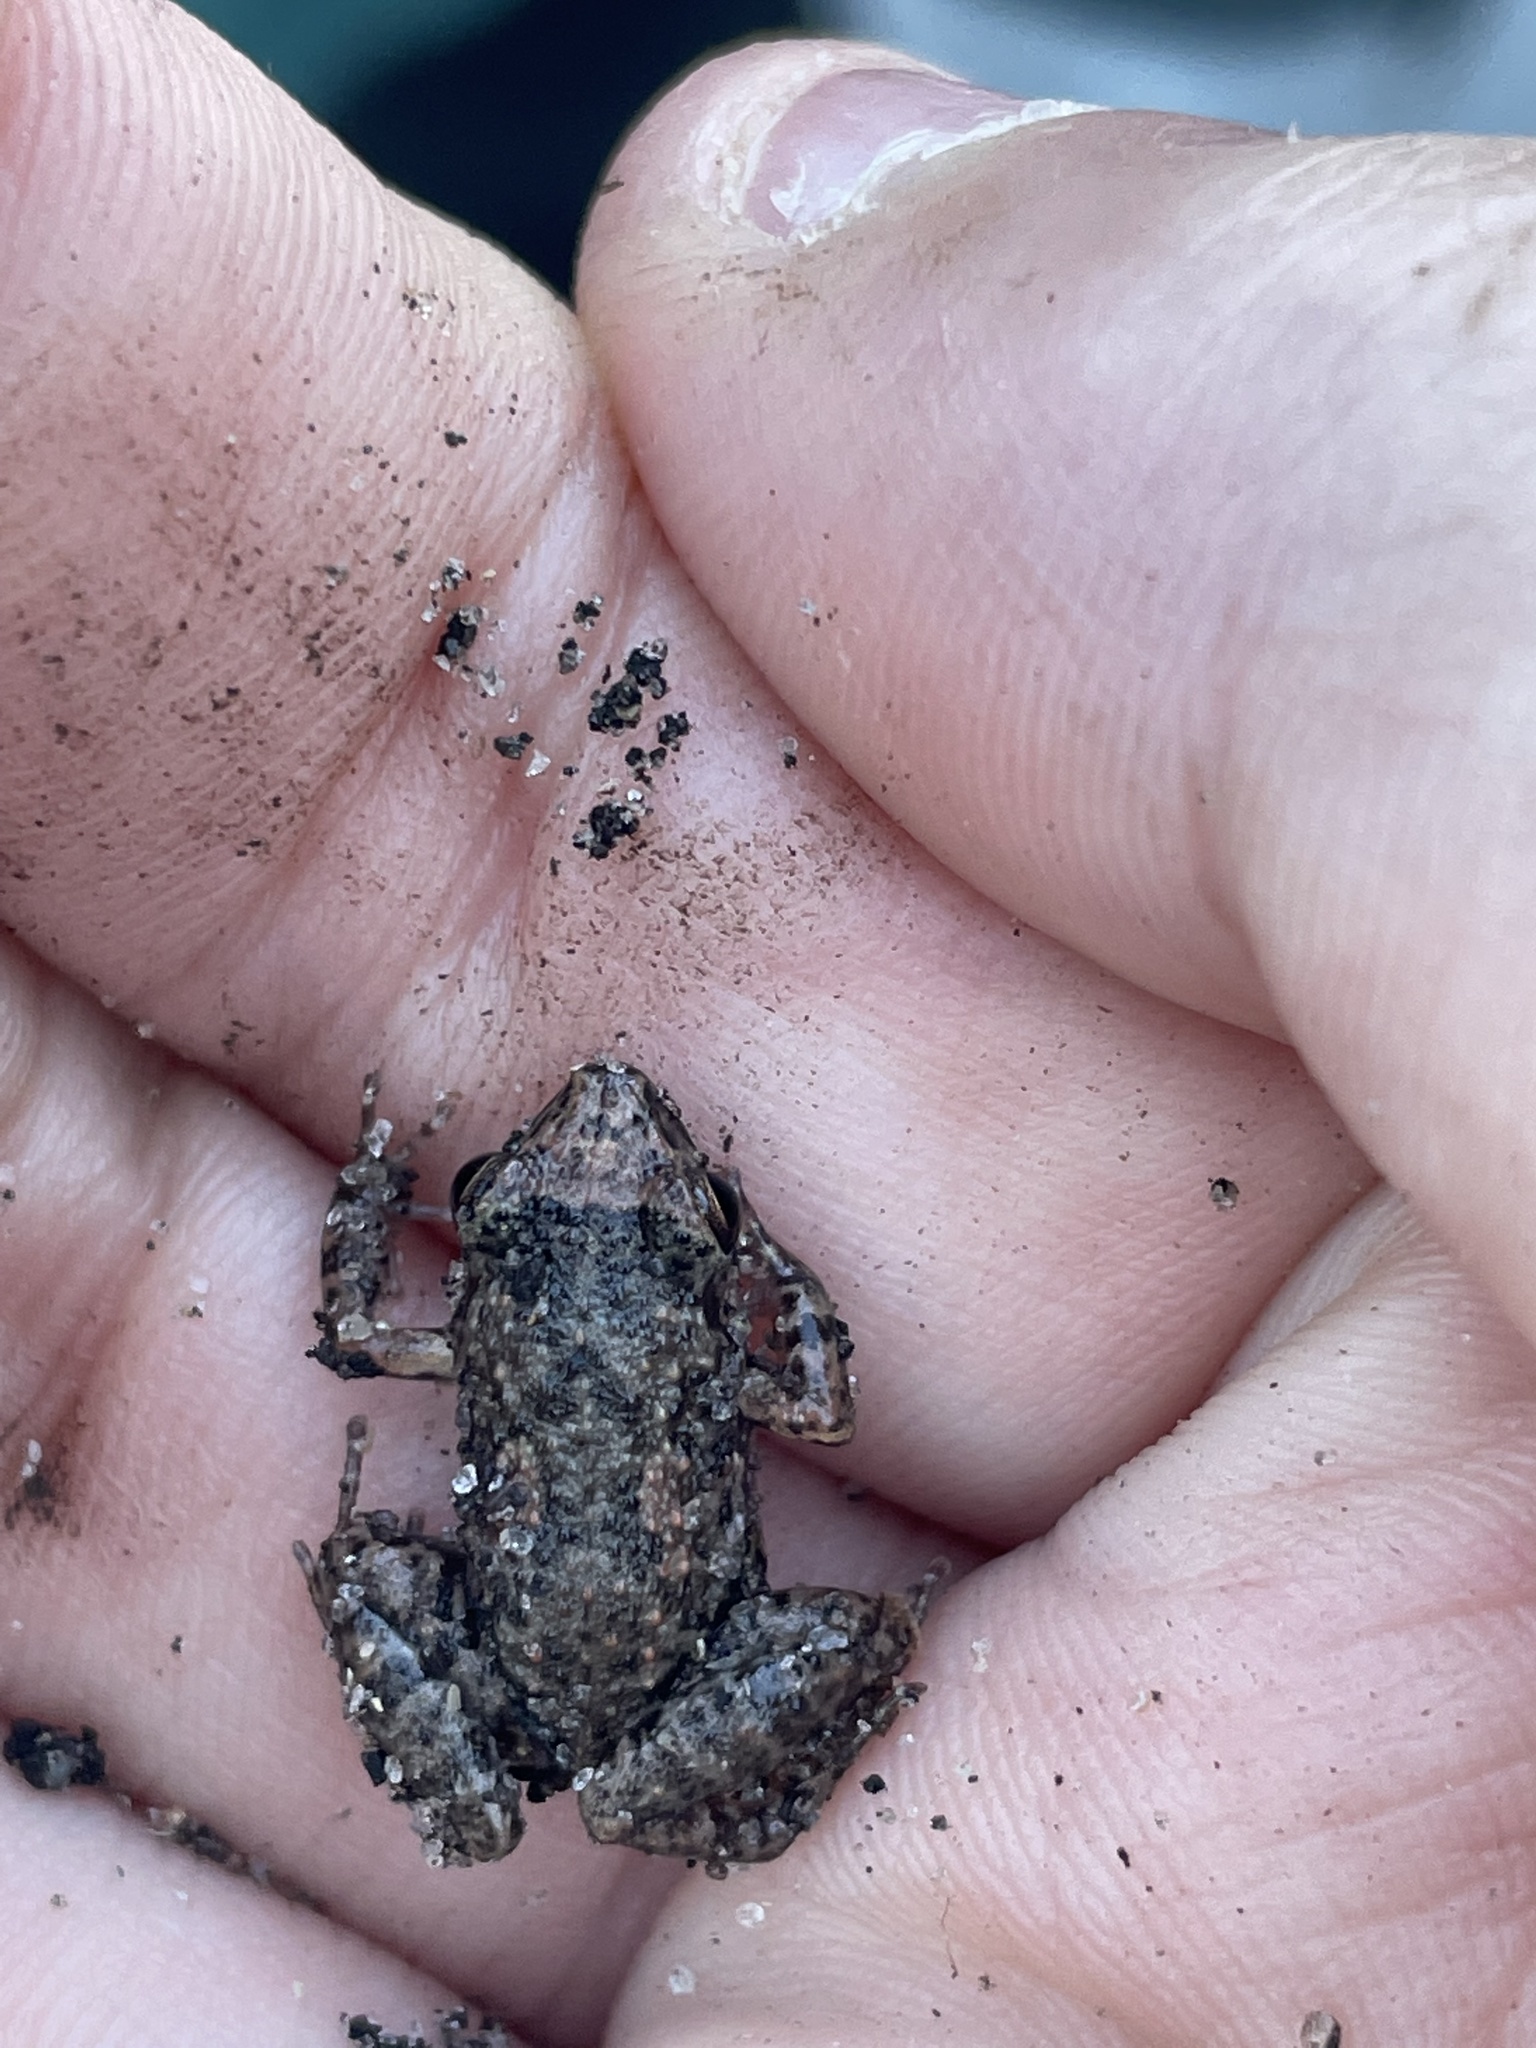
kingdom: Animalia
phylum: Chordata
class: Amphibia
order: Anura
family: Eleutherodactylidae
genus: Eleutherodactylus
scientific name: Eleutherodactylus planirostris
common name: Greenhouse frog
